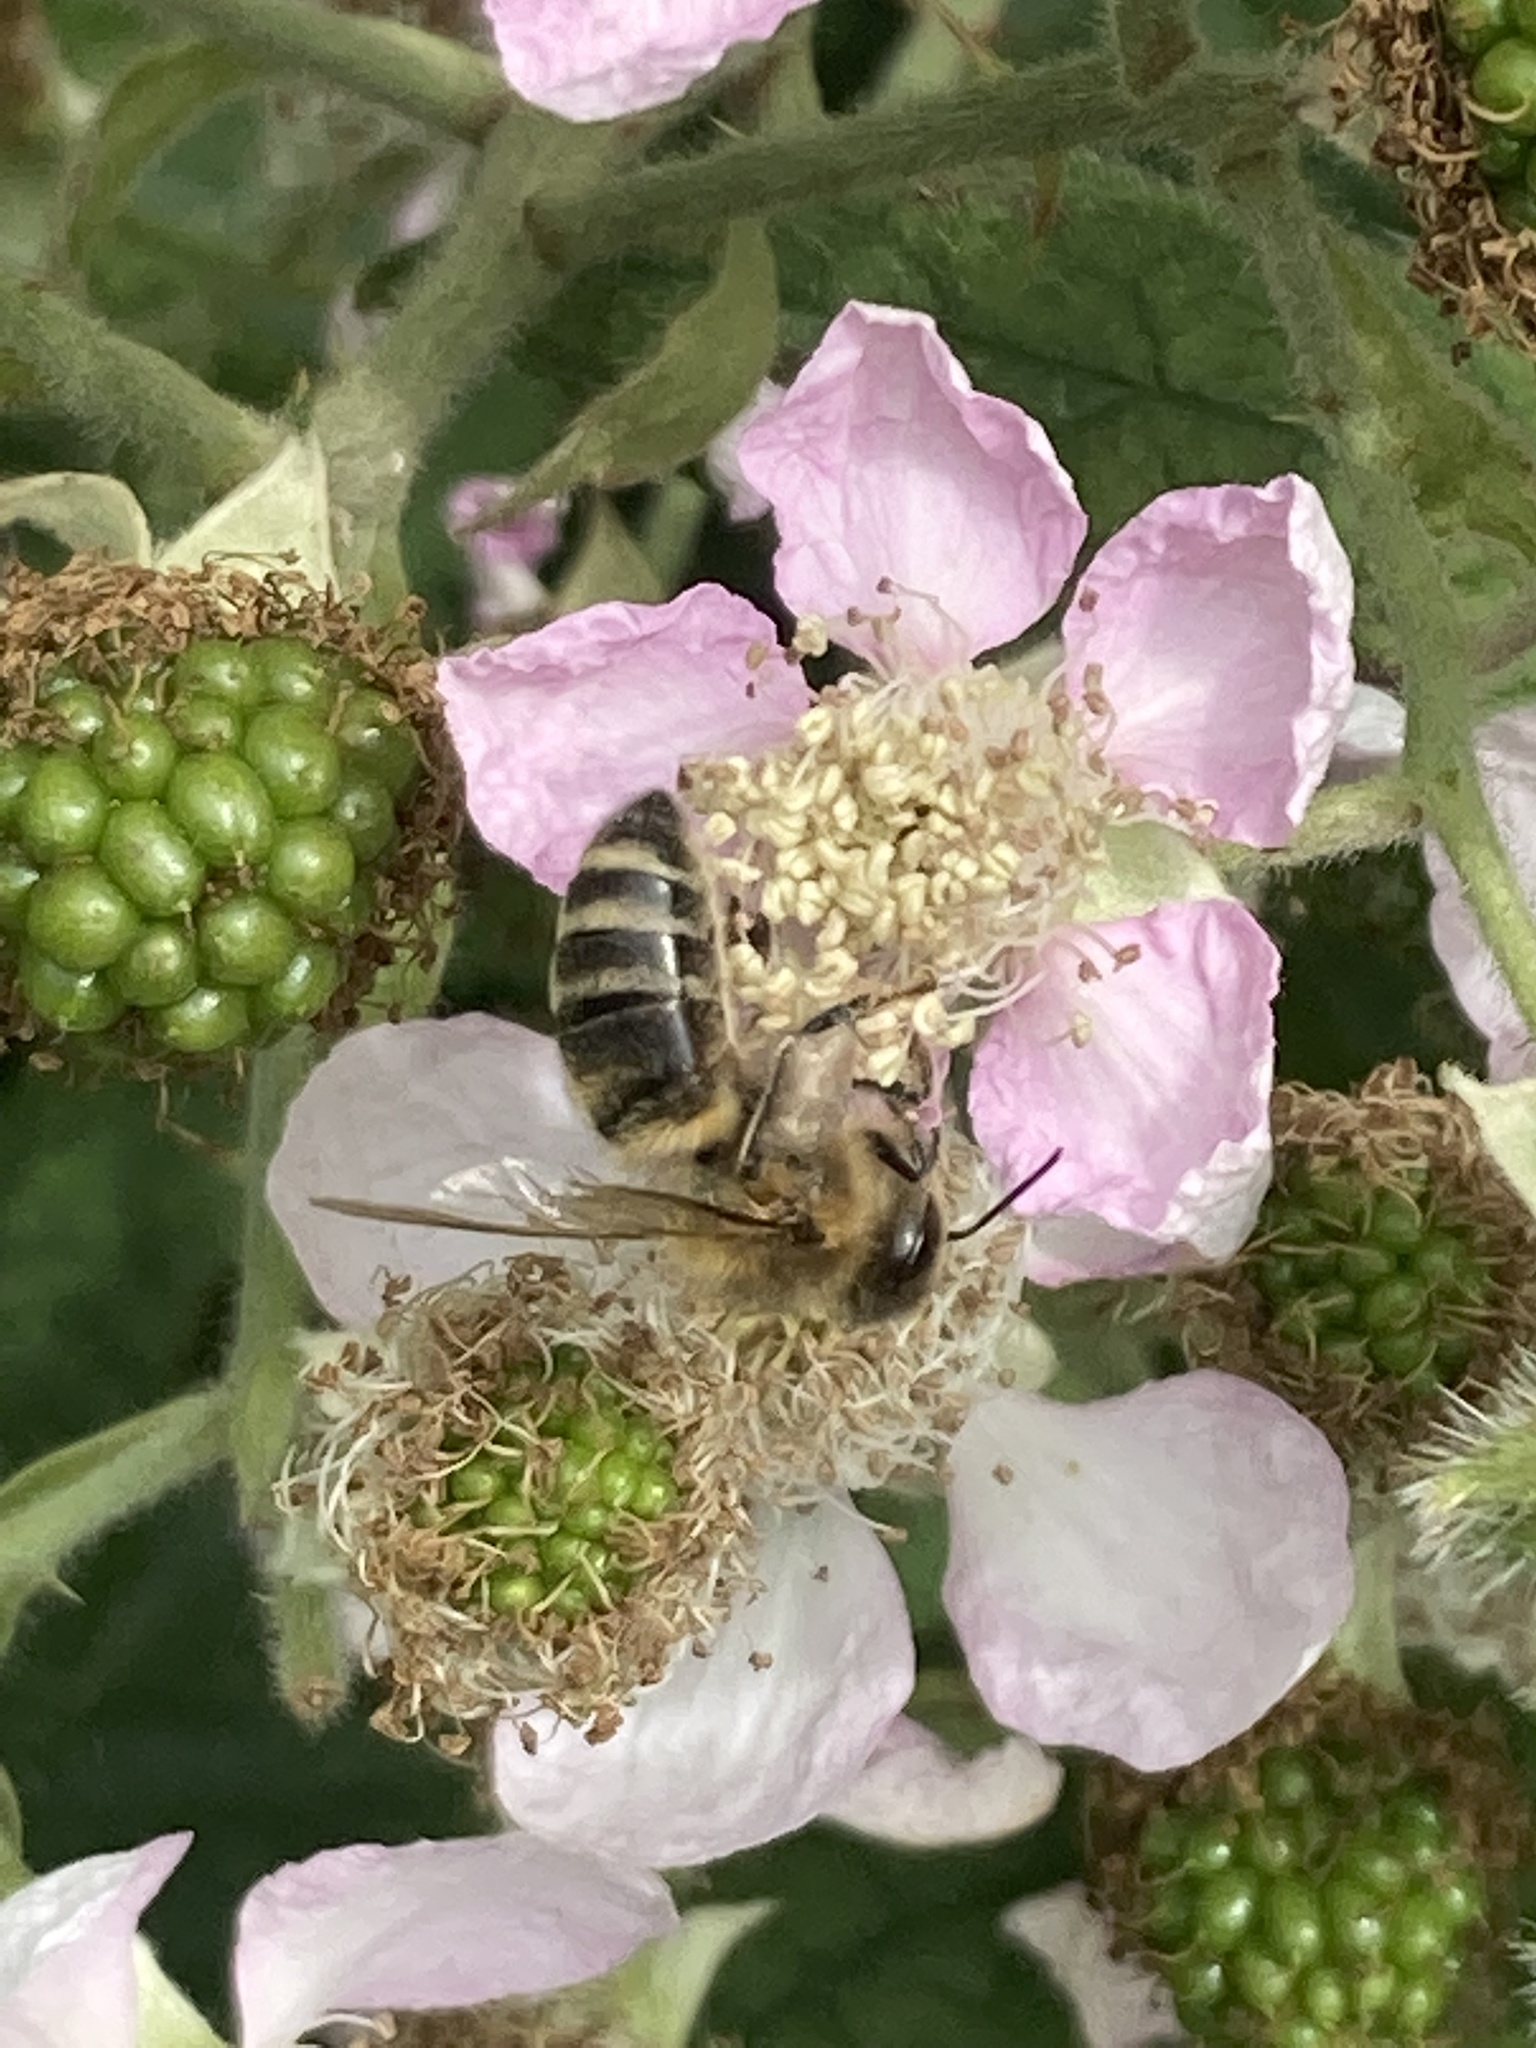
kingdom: Animalia
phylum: Arthropoda
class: Insecta
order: Hymenoptera
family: Apidae
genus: Apis
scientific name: Apis mellifera
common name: Honey bee
